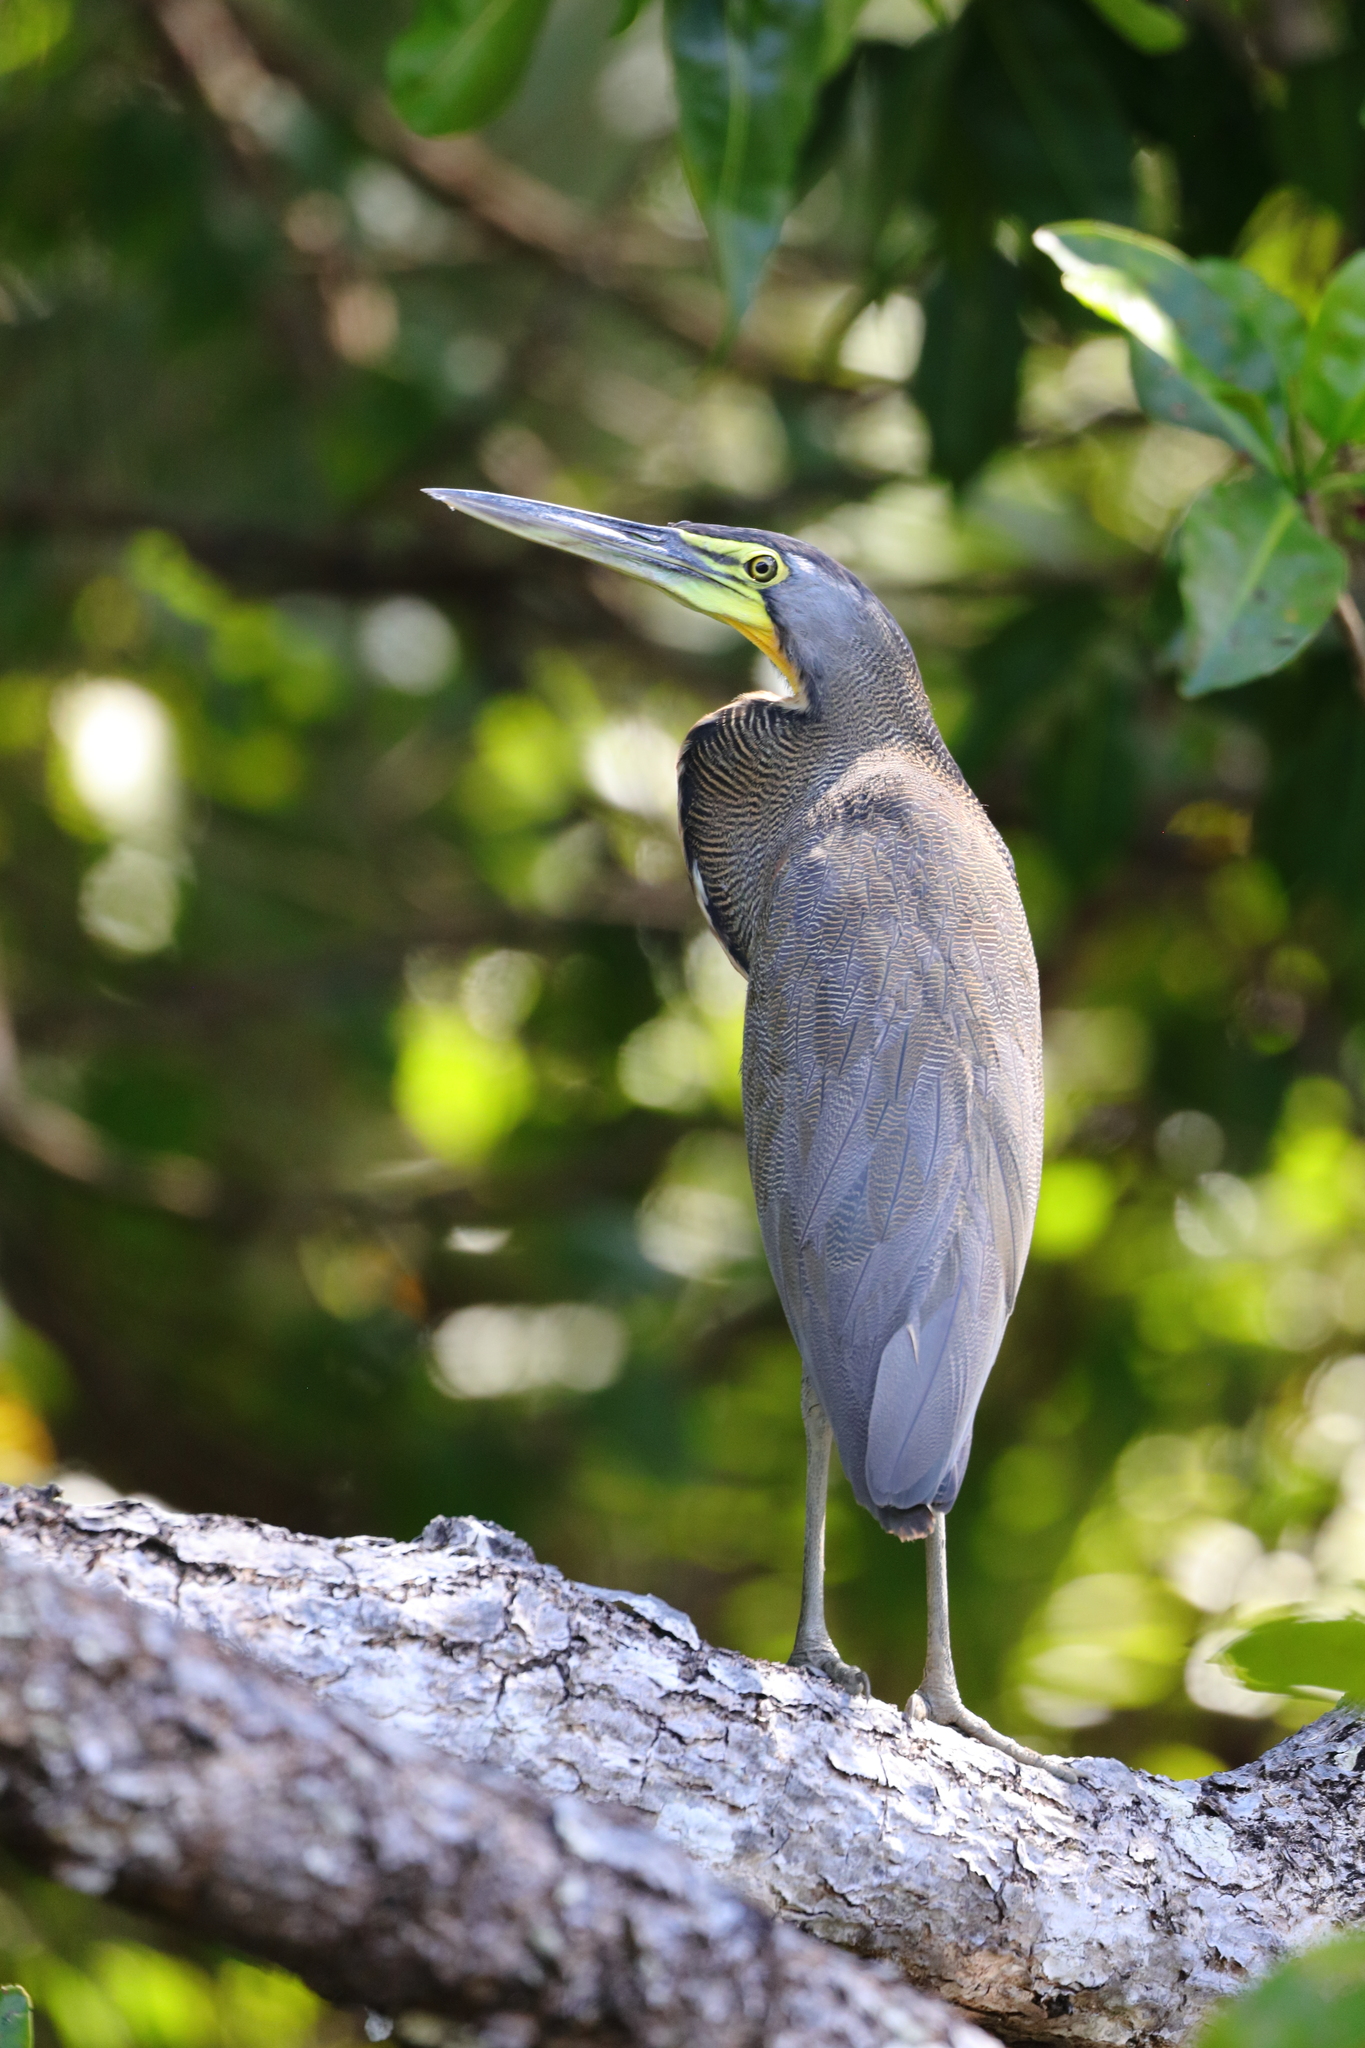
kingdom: Animalia
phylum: Chordata
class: Aves
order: Pelecaniformes
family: Ardeidae
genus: Tigrisoma
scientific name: Tigrisoma mexicanum
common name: Bare-throated tiger-heron
